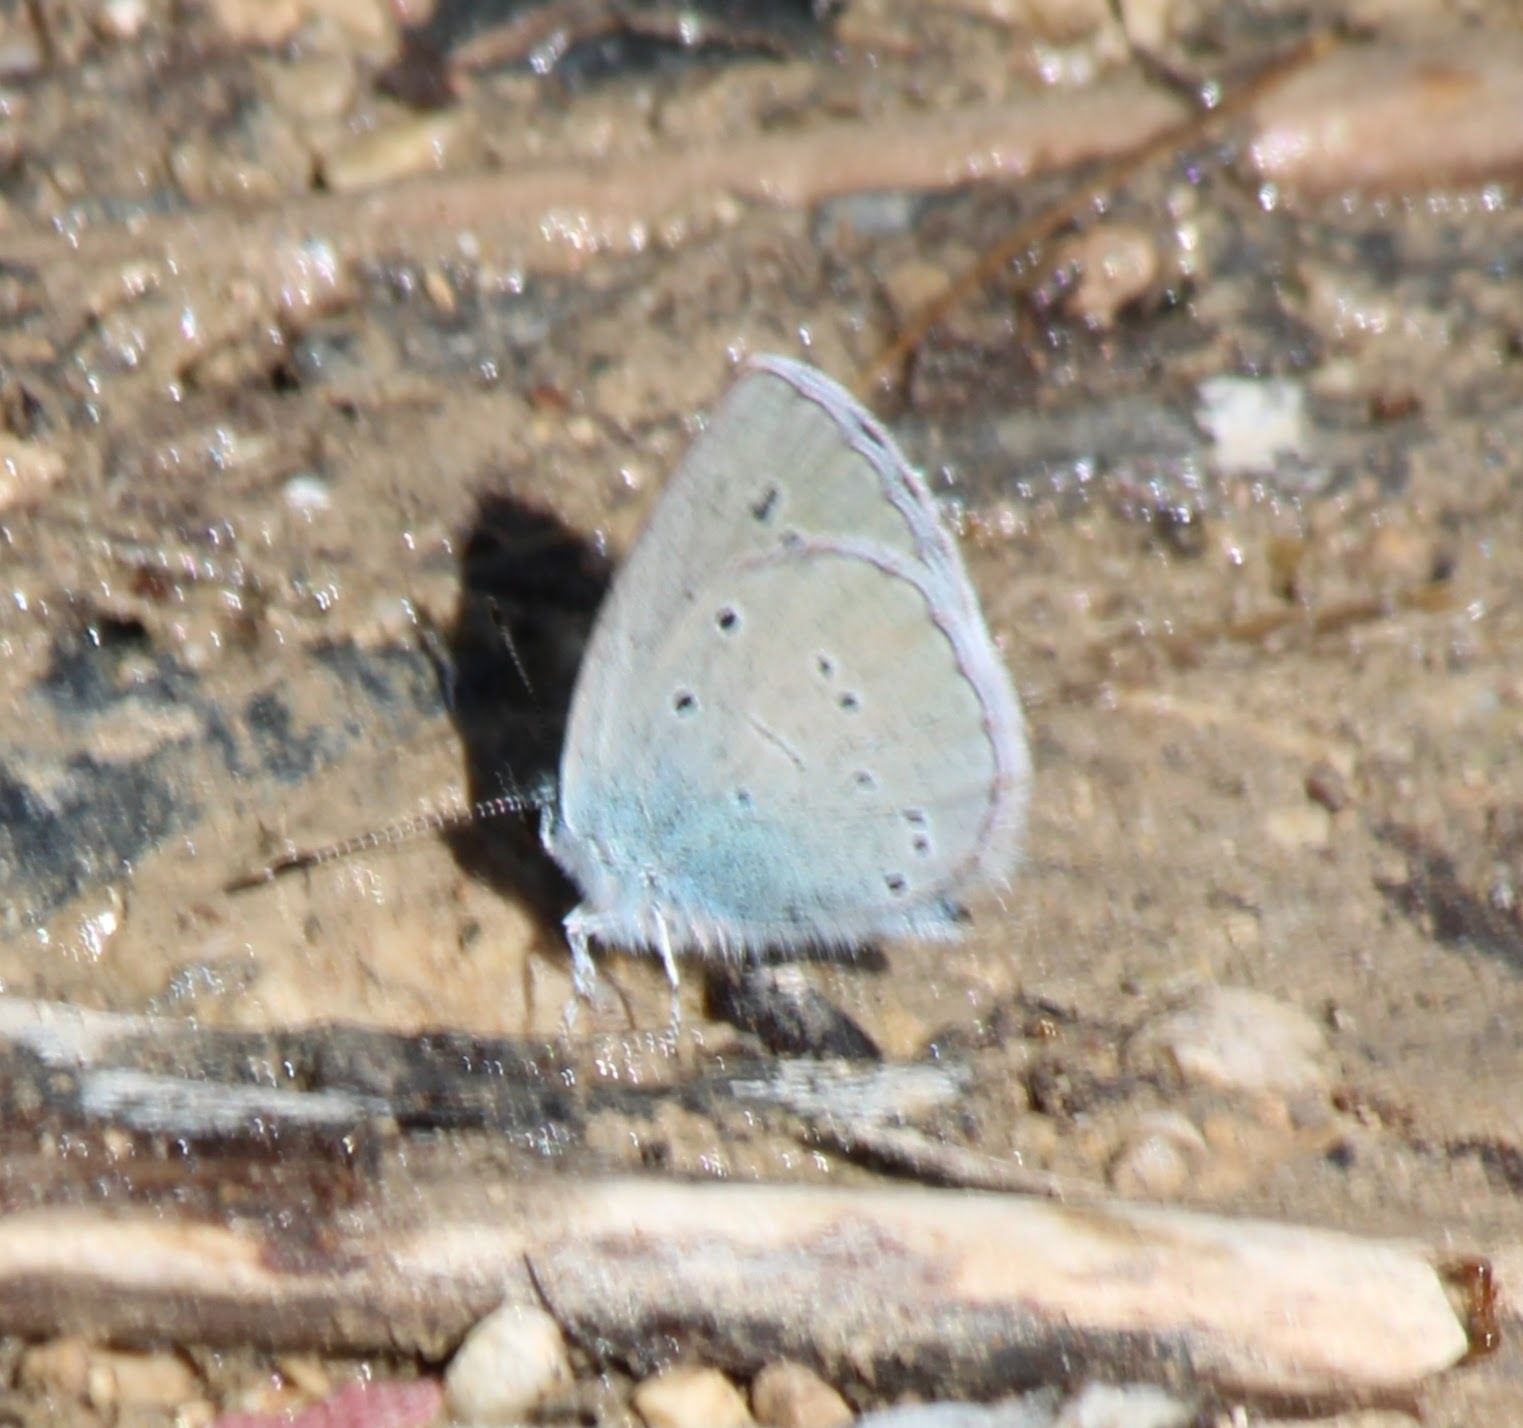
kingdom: Animalia
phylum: Arthropoda
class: Insecta
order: Lepidoptera
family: Lycaenidae
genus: Everes
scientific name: Everes sebrus
